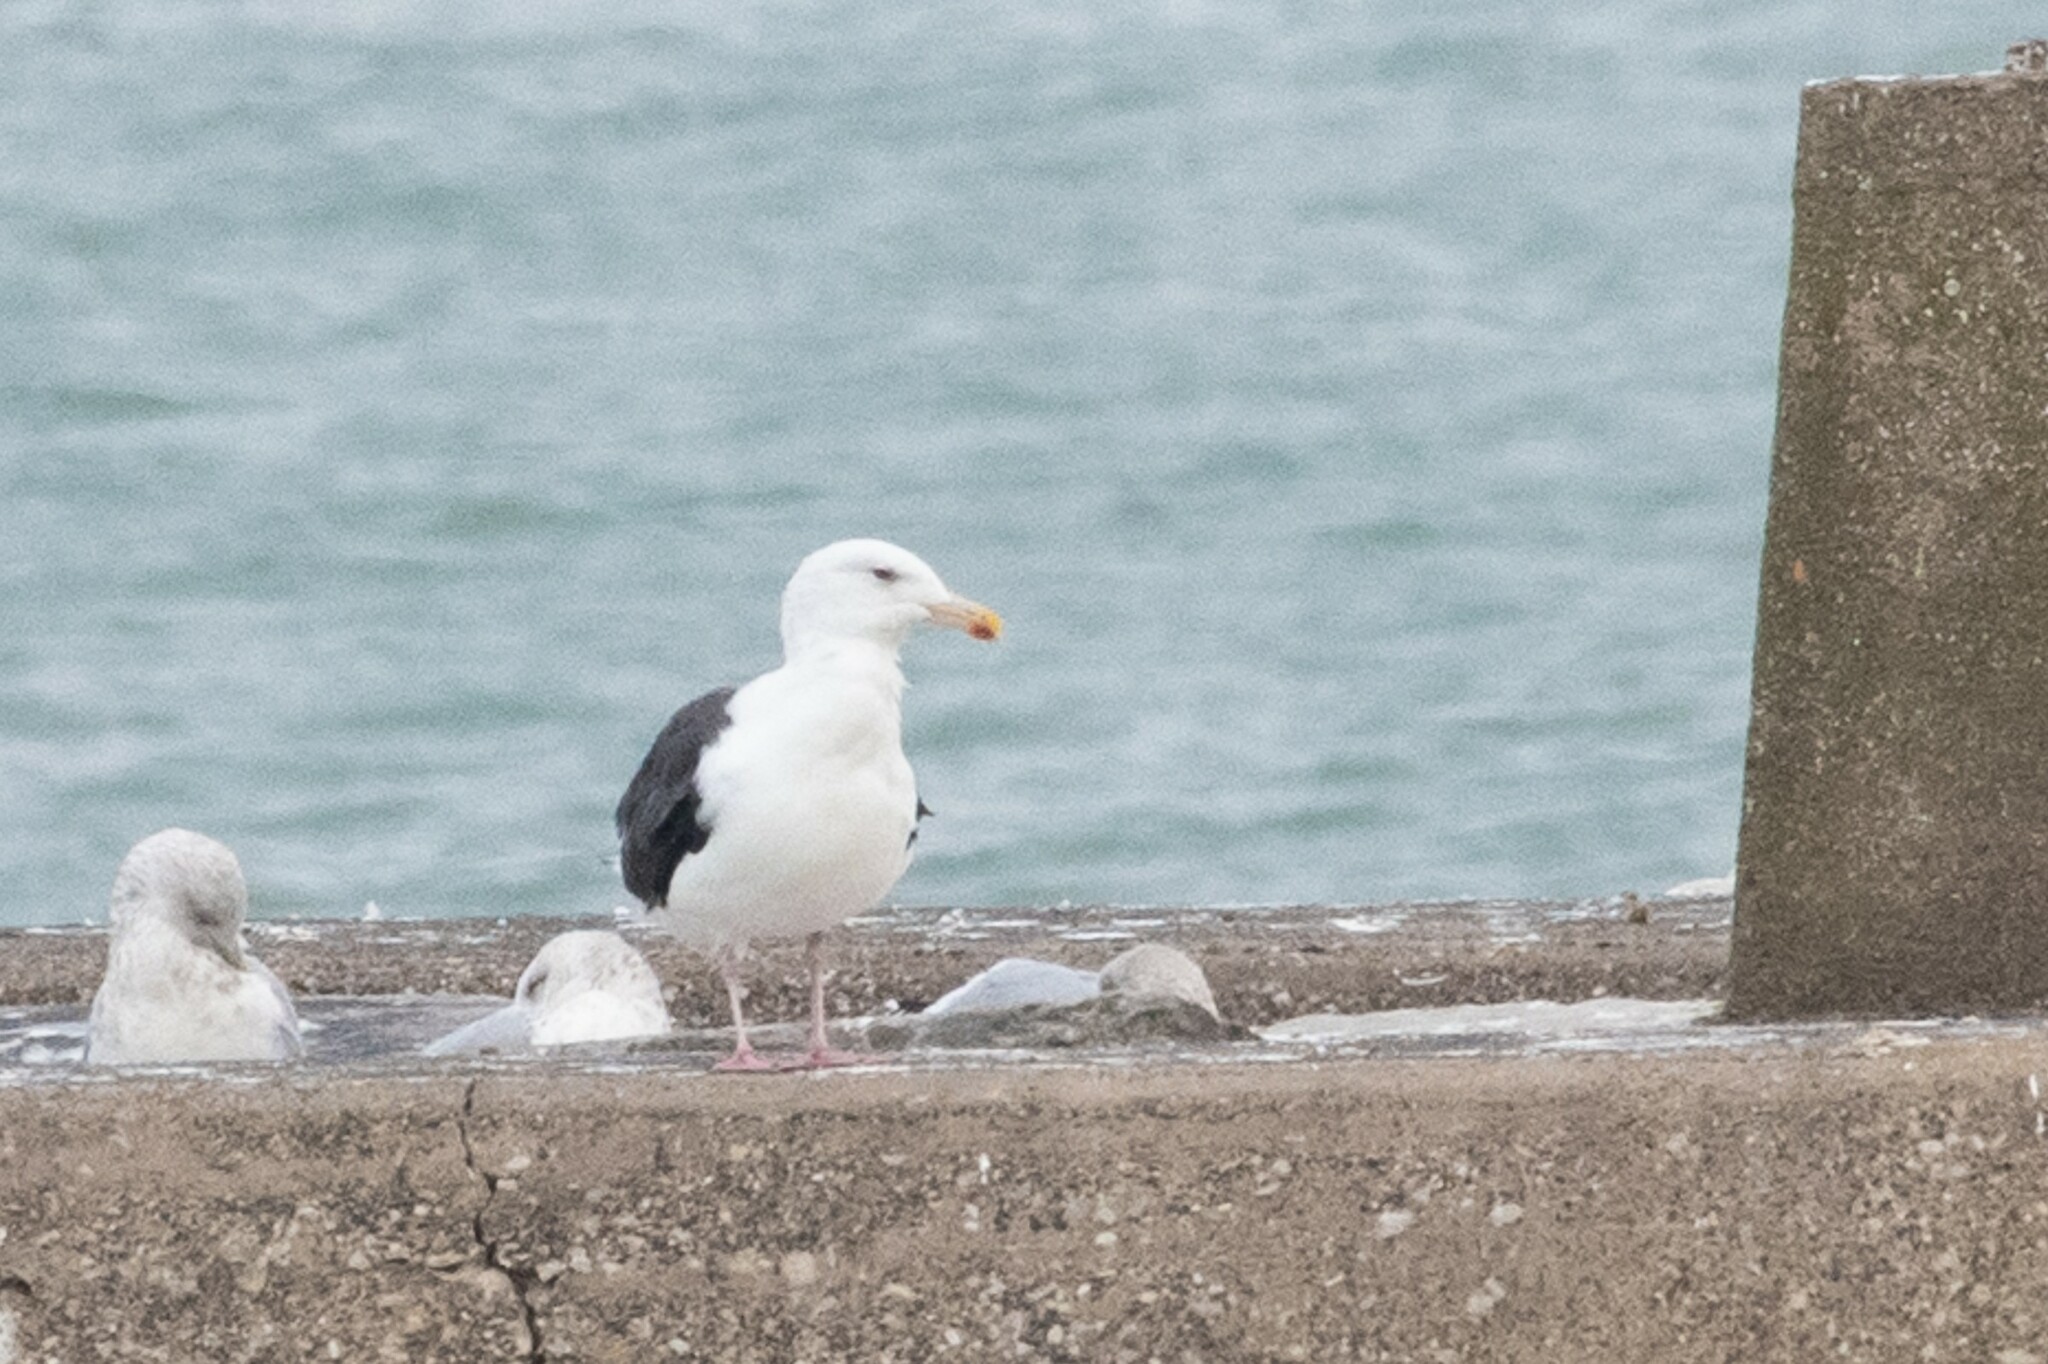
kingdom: Animalia
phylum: Chordata
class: Aves
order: Charadriiformes
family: Laridae
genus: Larus
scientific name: Larus marinus
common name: Great black-backed gull
